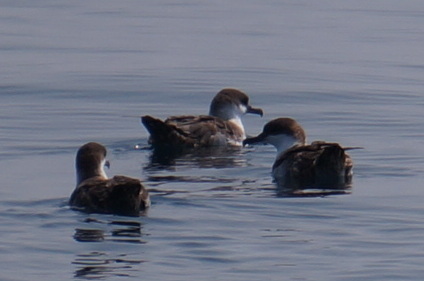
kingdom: Animalia
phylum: Chordata
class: Aves
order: Procellariiformes
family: Procellariidae
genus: Puffinus
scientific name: Puffinus gravis
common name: Great shearwater
